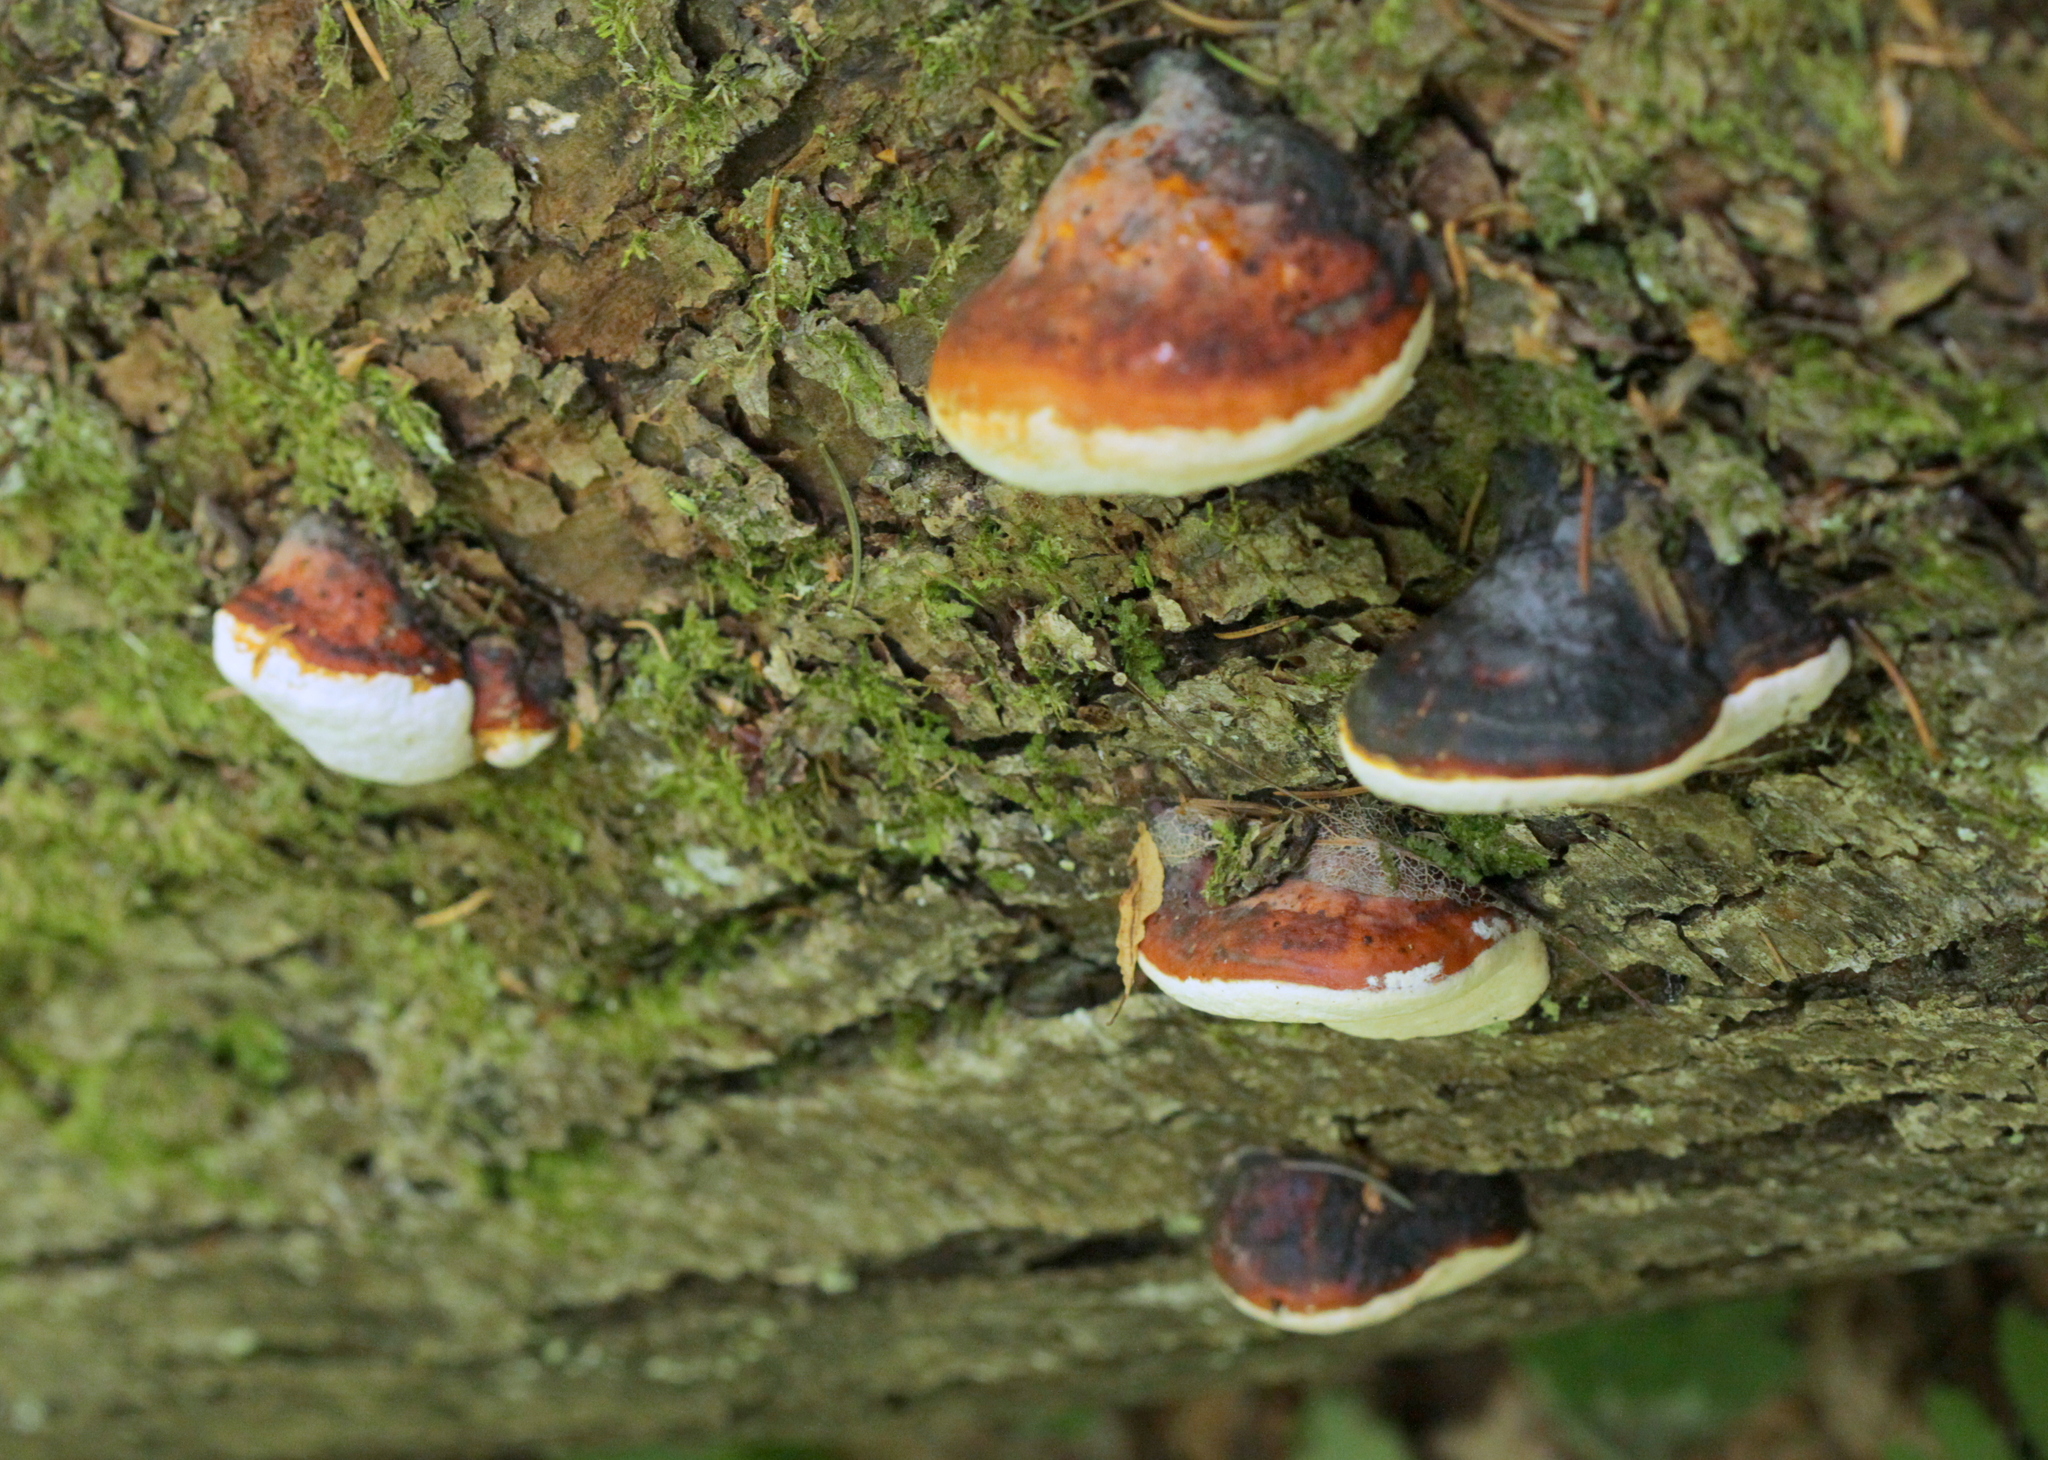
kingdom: Fungi
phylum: Basidiomycota
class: Agaricomycetes
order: Polyporales
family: Fomitopsidaceae
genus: Fomitopsis
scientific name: Fomitopsis pinicola
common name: Red-belted bracket
